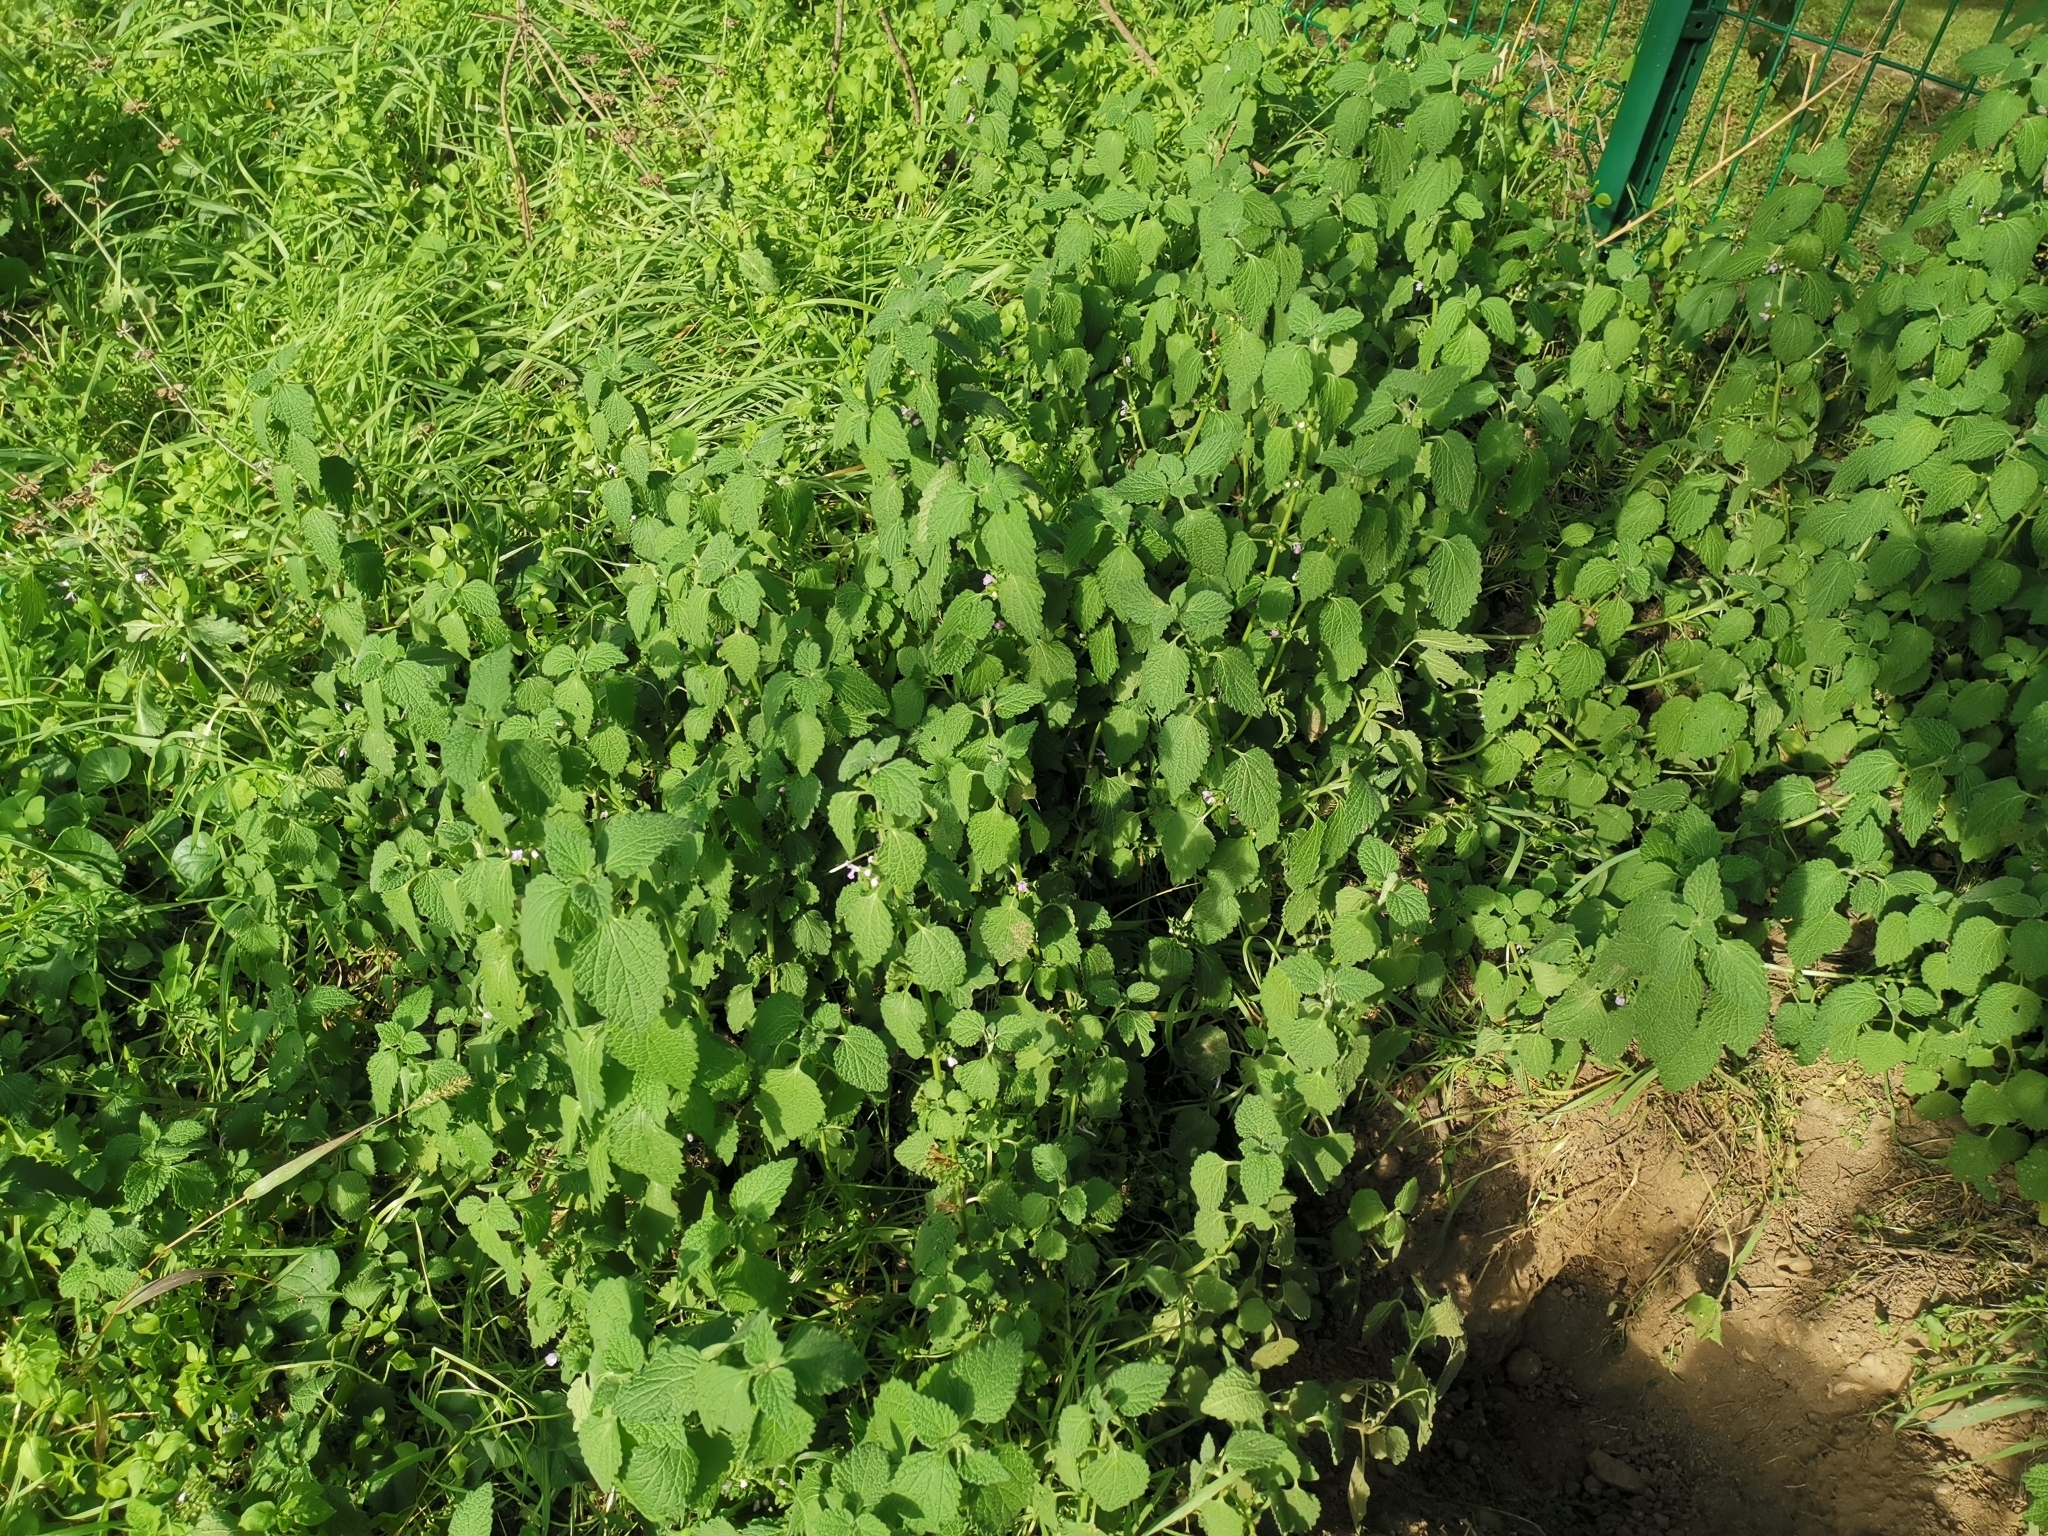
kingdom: Plantae
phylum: Tracheophyta
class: Magnoliopsida
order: Lamiales
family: Lamiaceae
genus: Ballota
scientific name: Ballota nigra
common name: Black horehound
